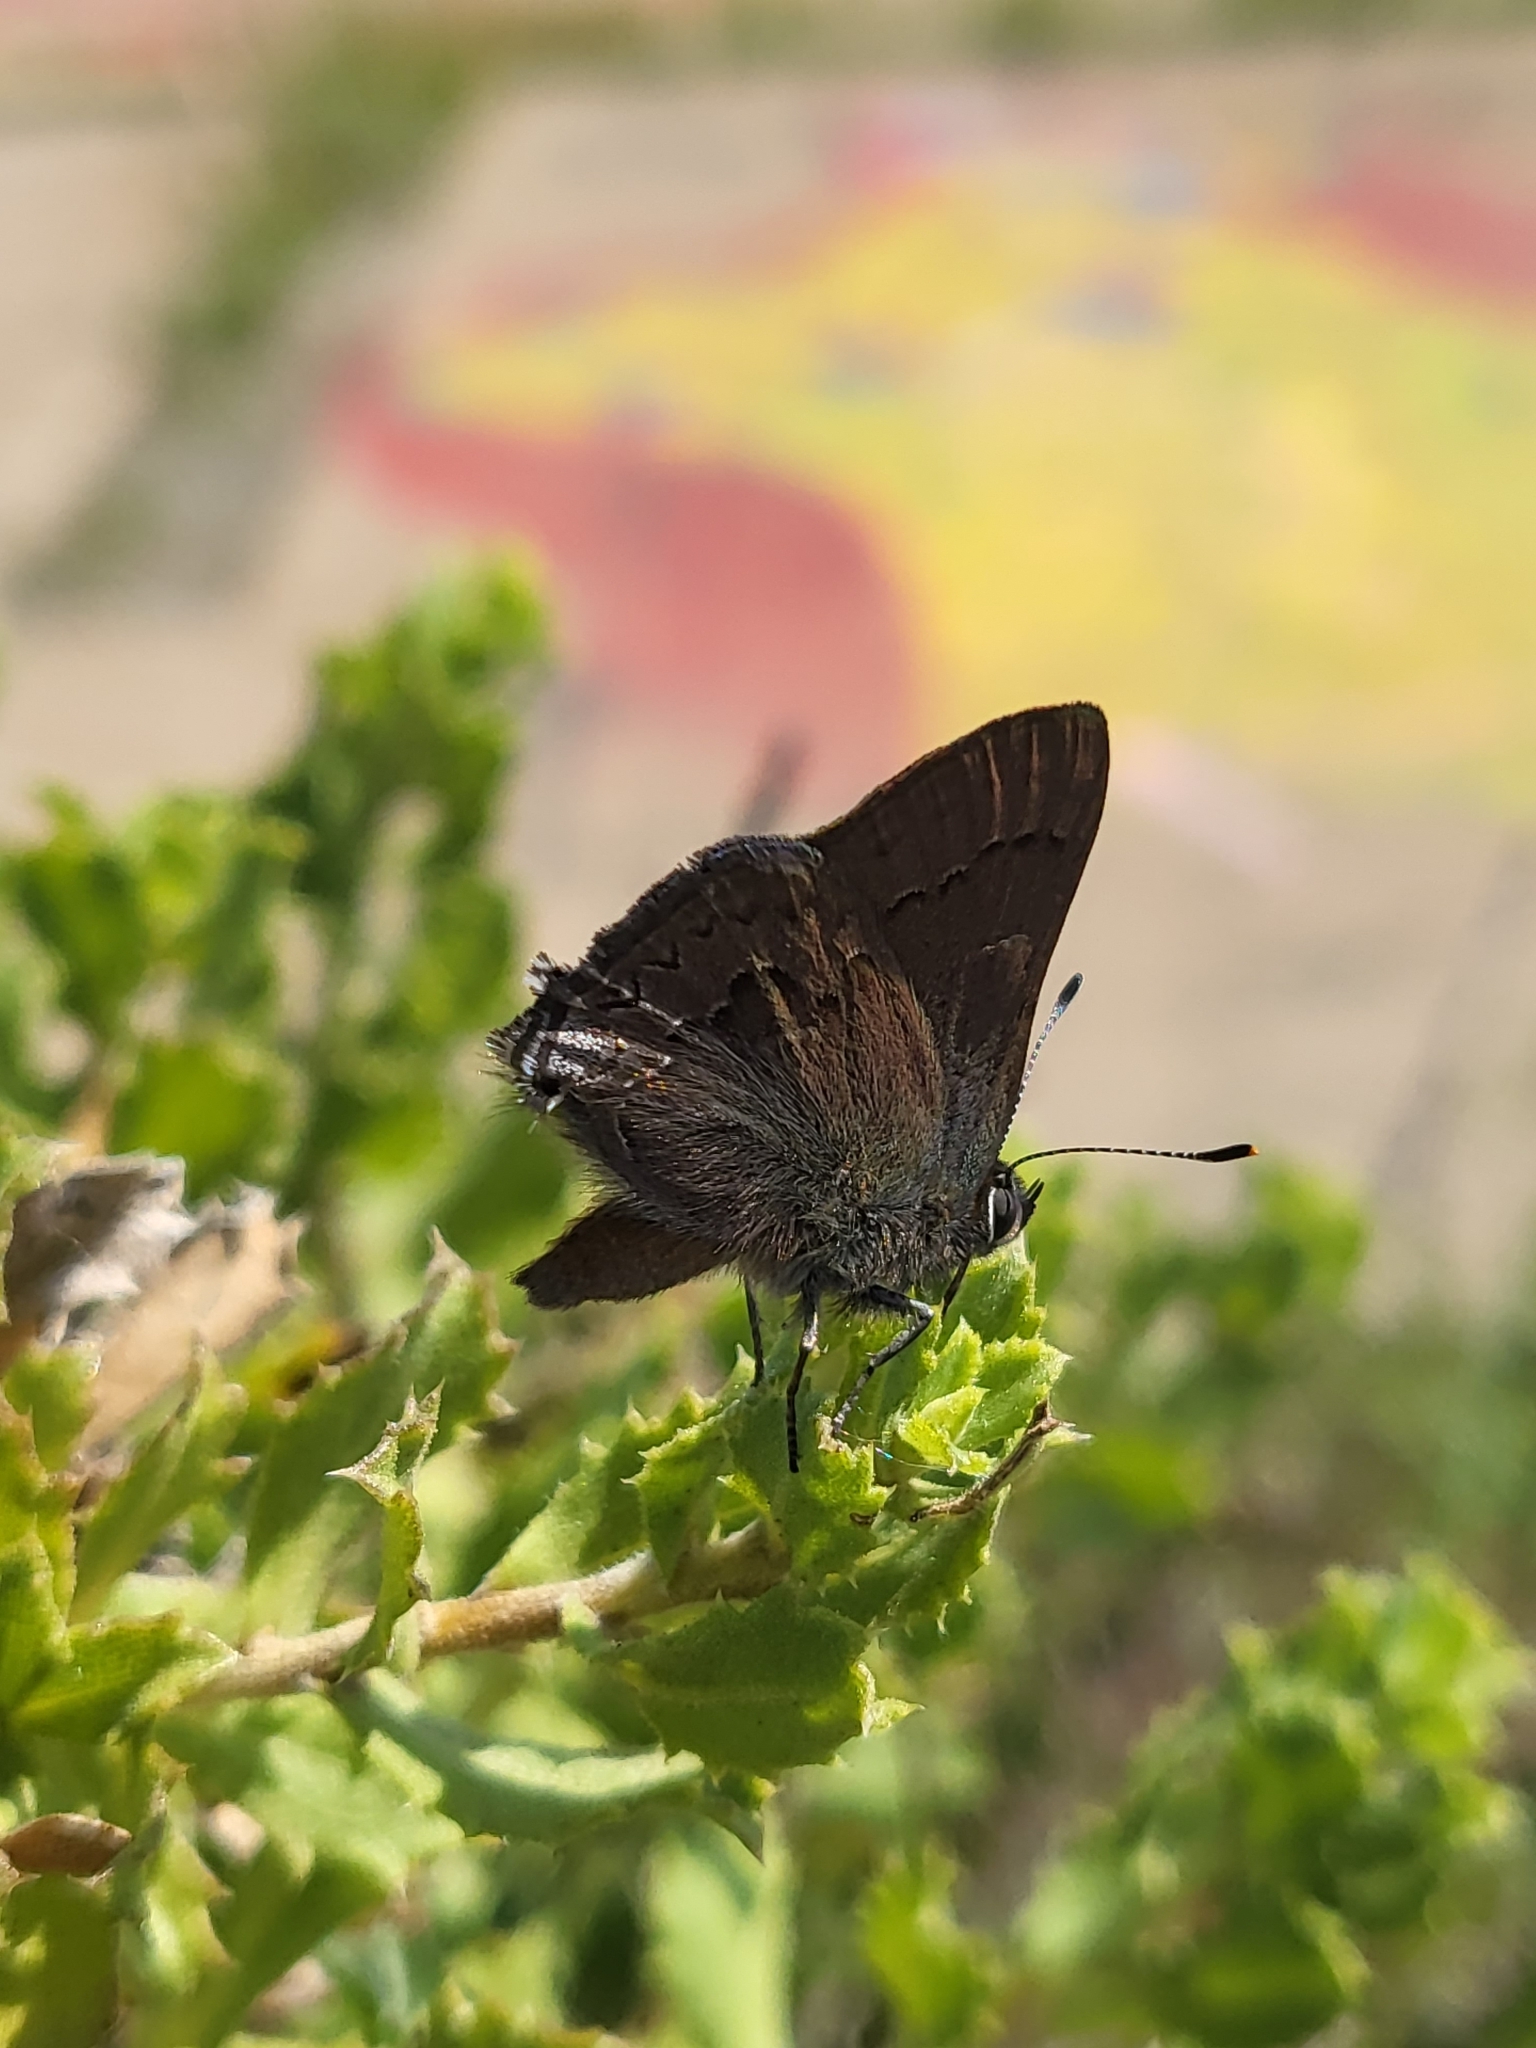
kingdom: Animalia
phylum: Arthropoda
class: Insecta
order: Lepidoptera
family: Lycaenidae
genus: Strymon
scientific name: Strymon saepium
